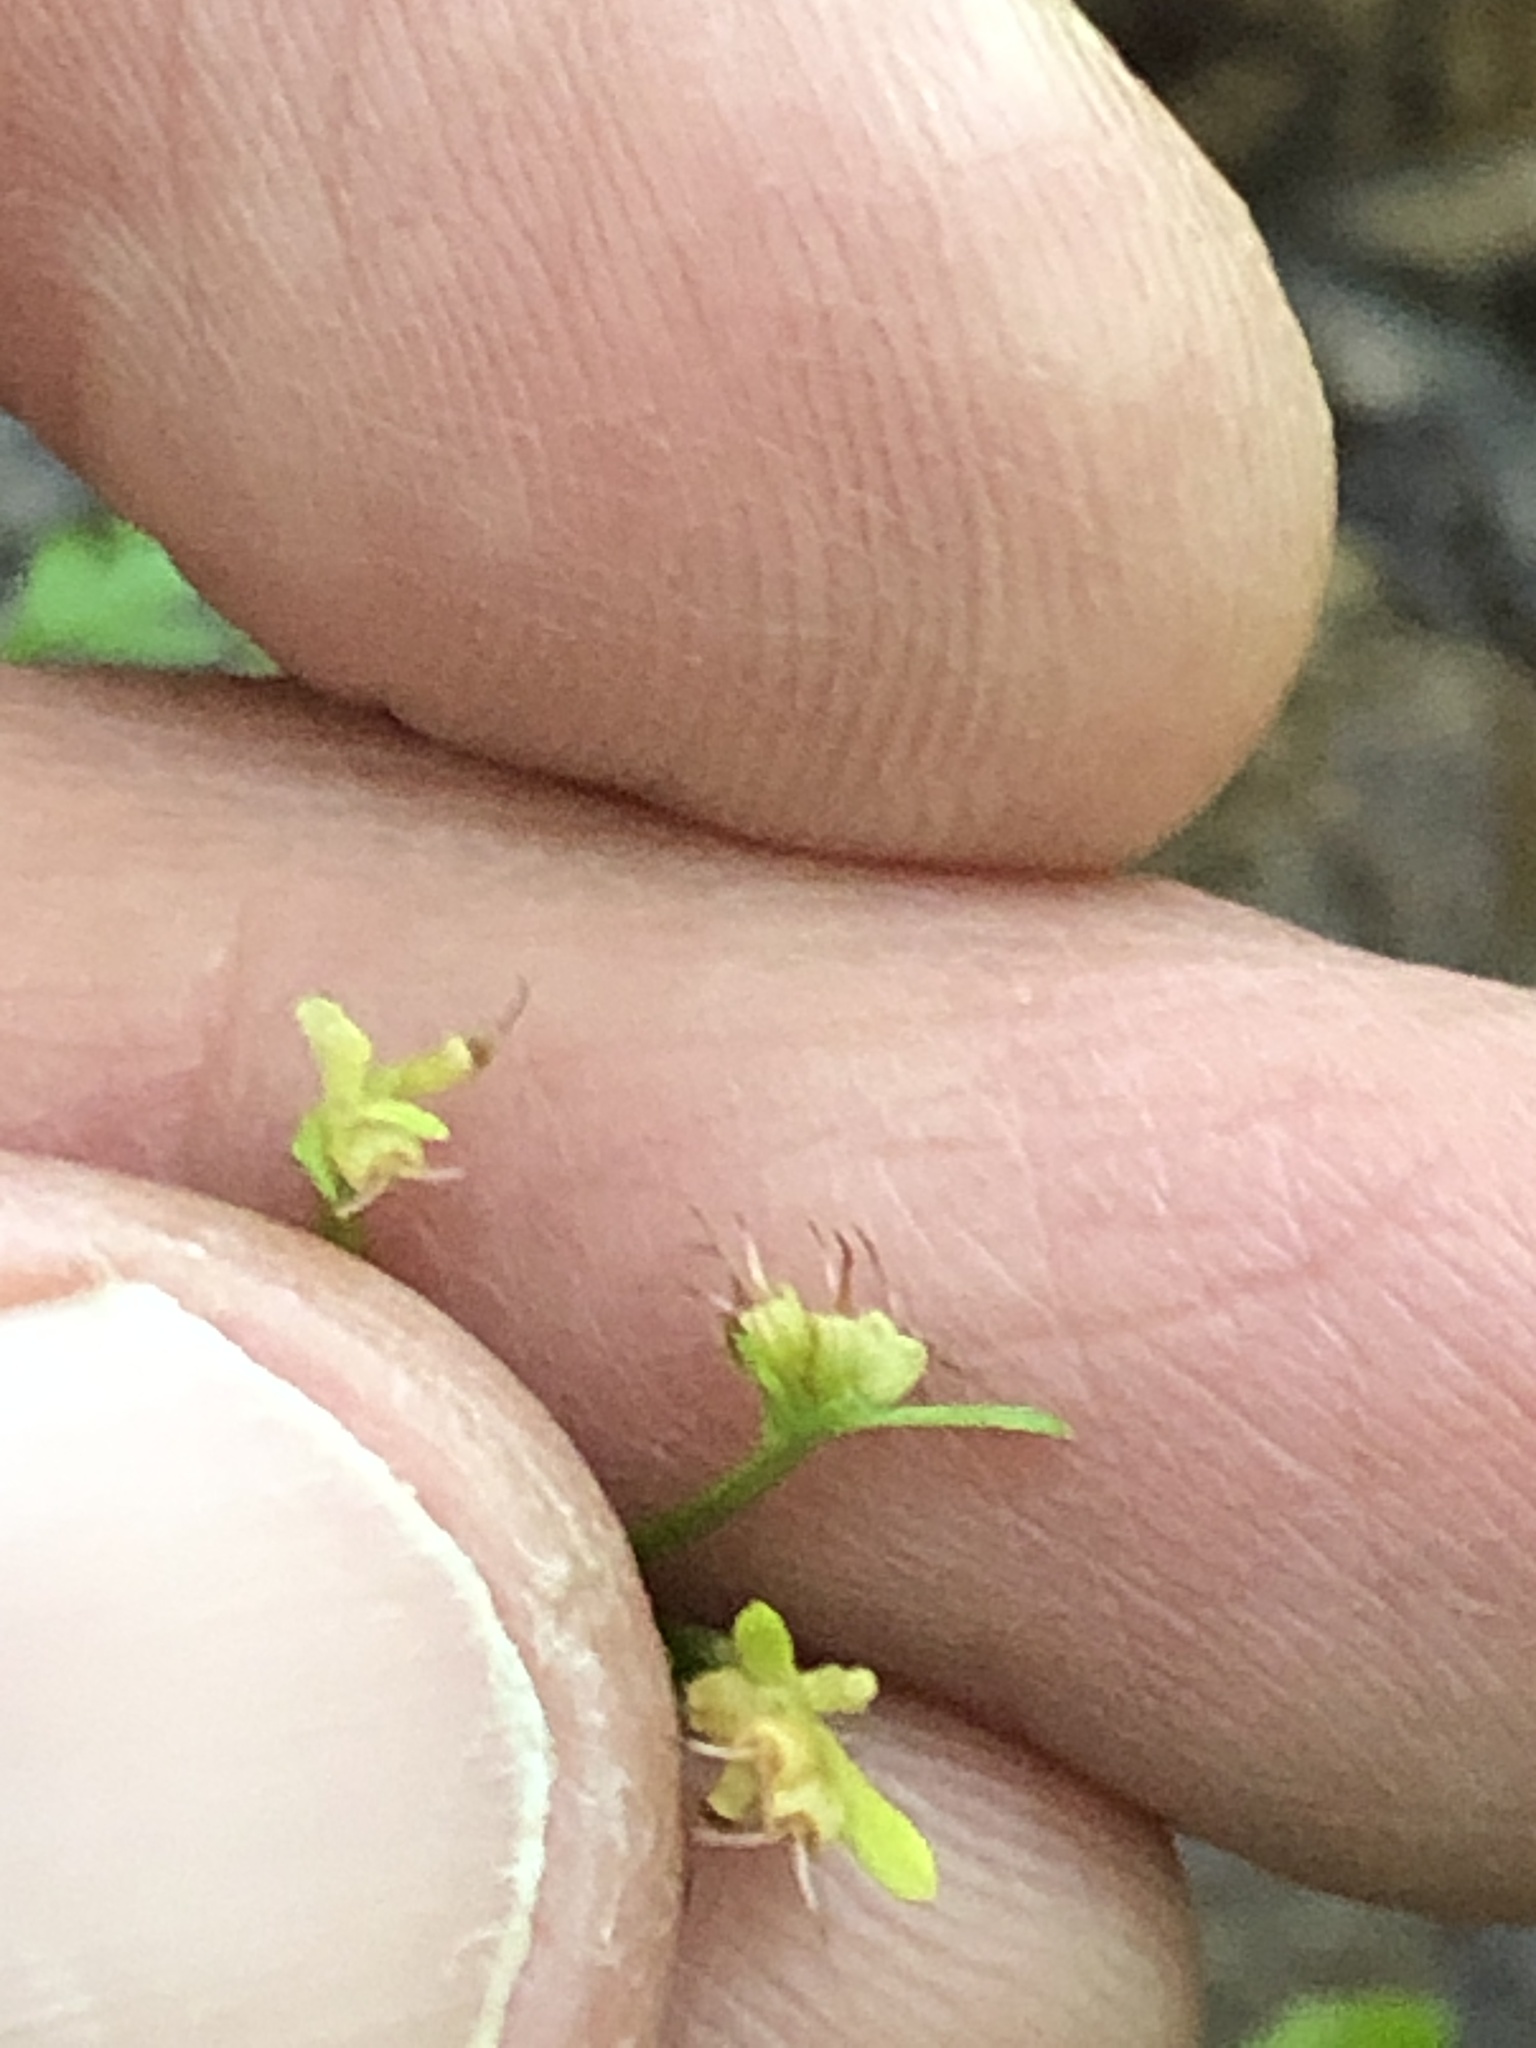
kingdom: Plantae
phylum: Tracheophyta
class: Magnoliopsida
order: Brassicales
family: Limnanthaceae
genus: Floerkea
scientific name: Floerkea proserpinacoides
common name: False mermaid
